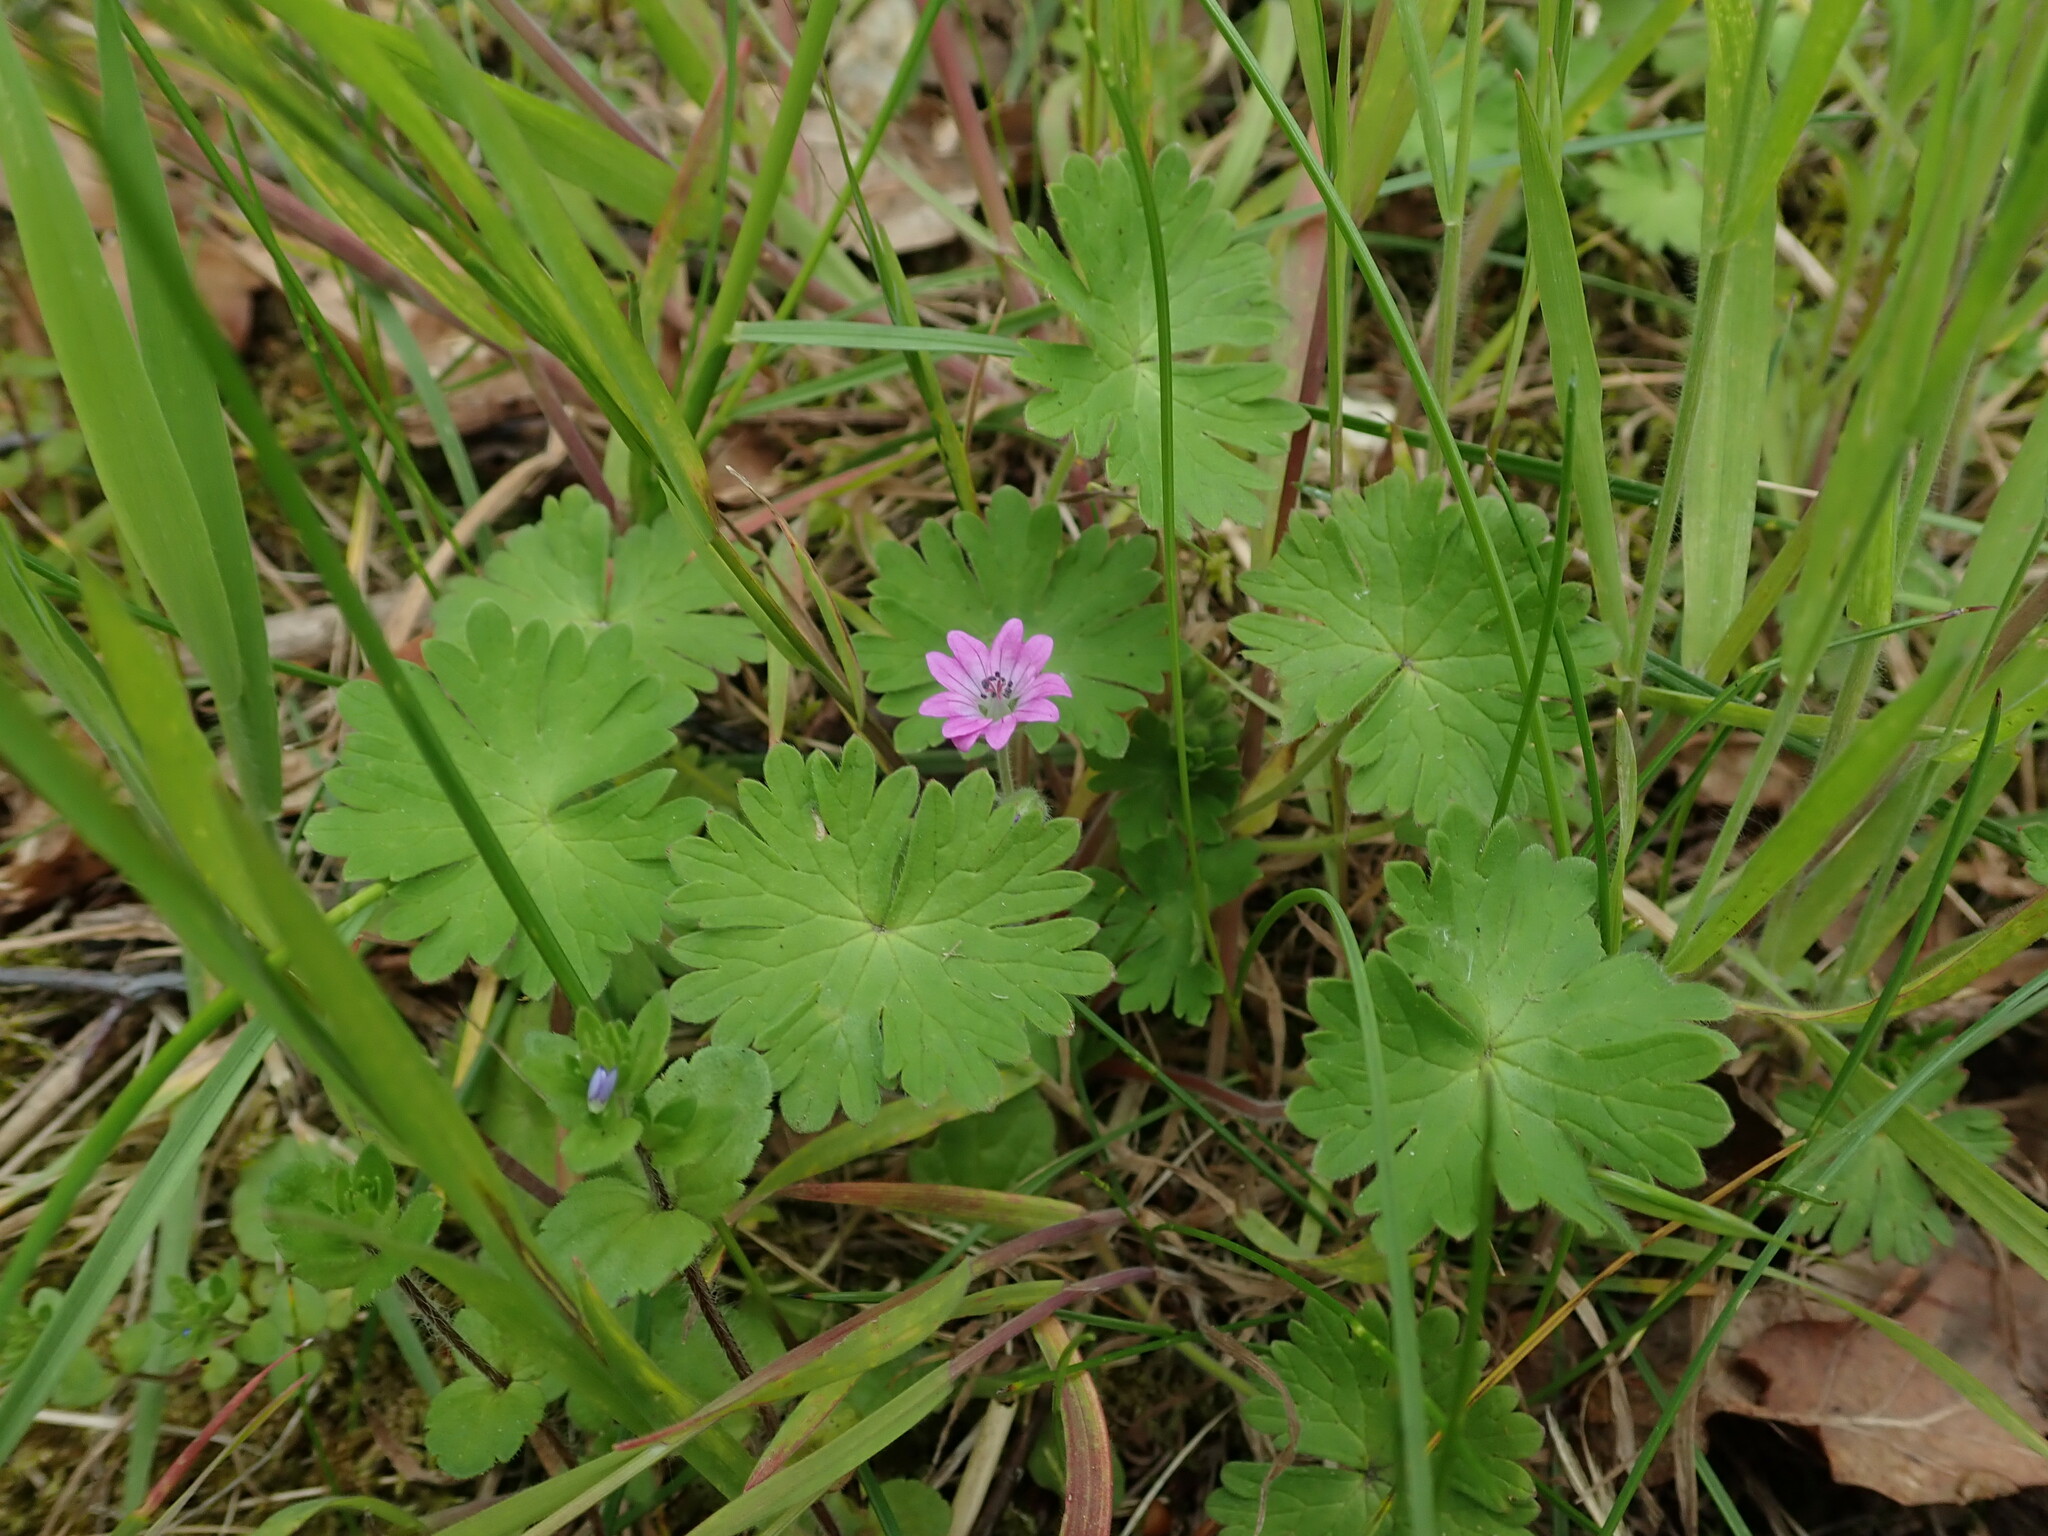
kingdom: Plantae
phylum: Tracheophyta
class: Magnoliopsida
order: Geraniales
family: Geraniaceae
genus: Geranium
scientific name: Geranium molle
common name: Dove's-foot crane's-bill
